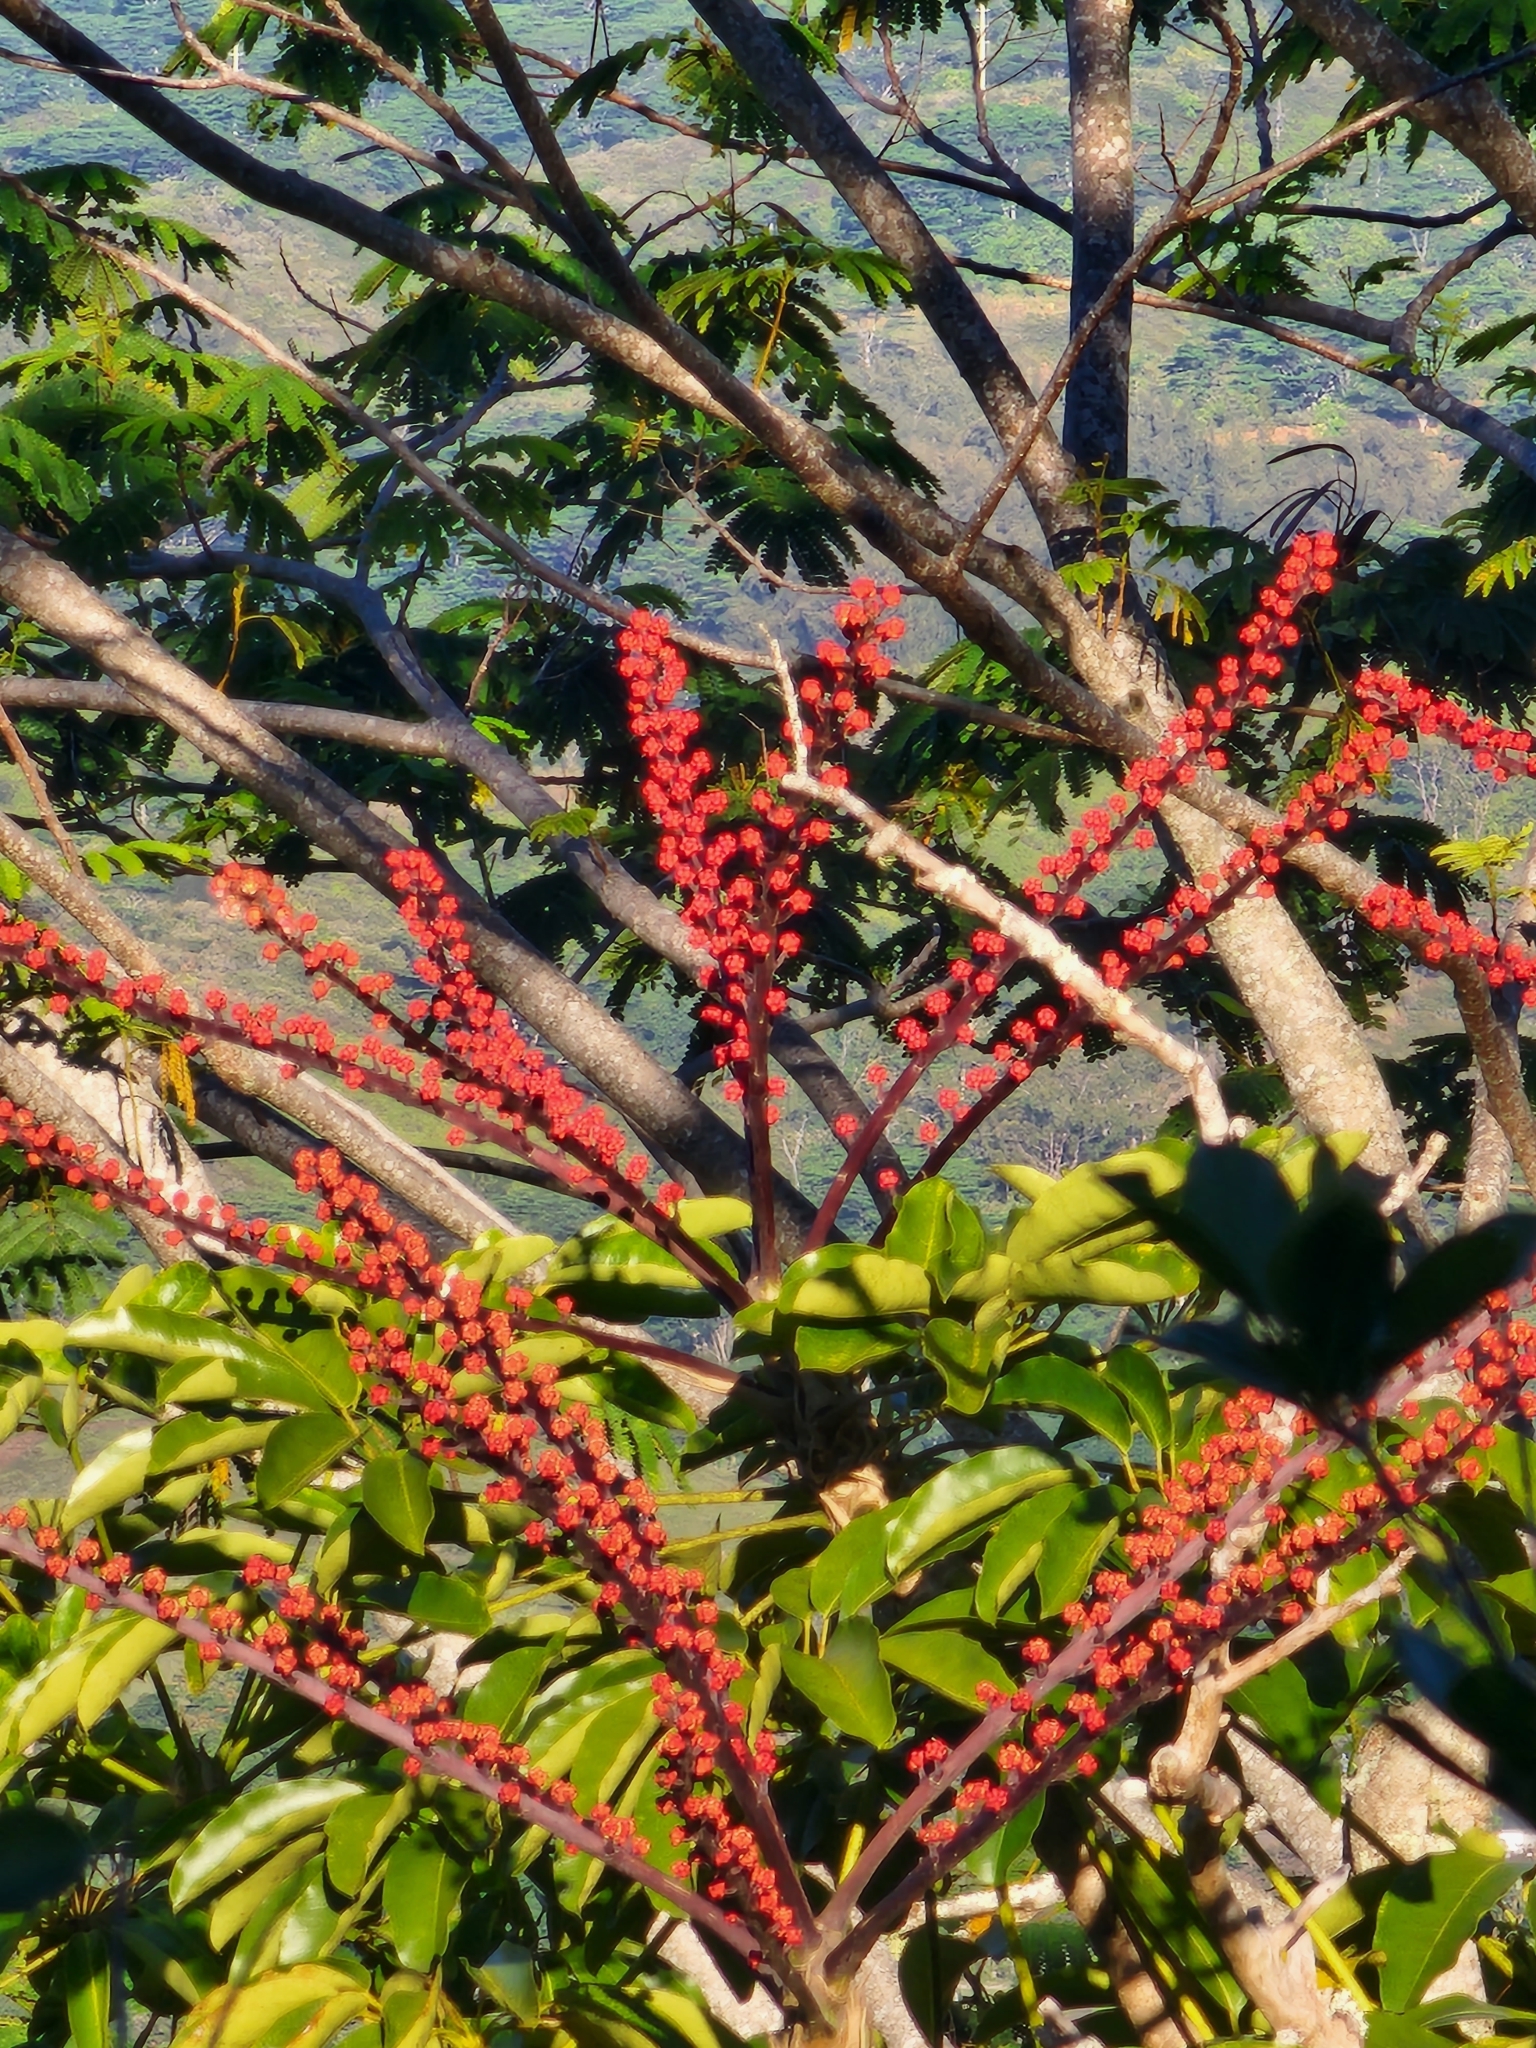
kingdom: Plantae
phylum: Tracheophyta
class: Magnoliopsida
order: Apiales
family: Araliaceae
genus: Heptapleurum
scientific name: Heptapleurum actinophyllum
